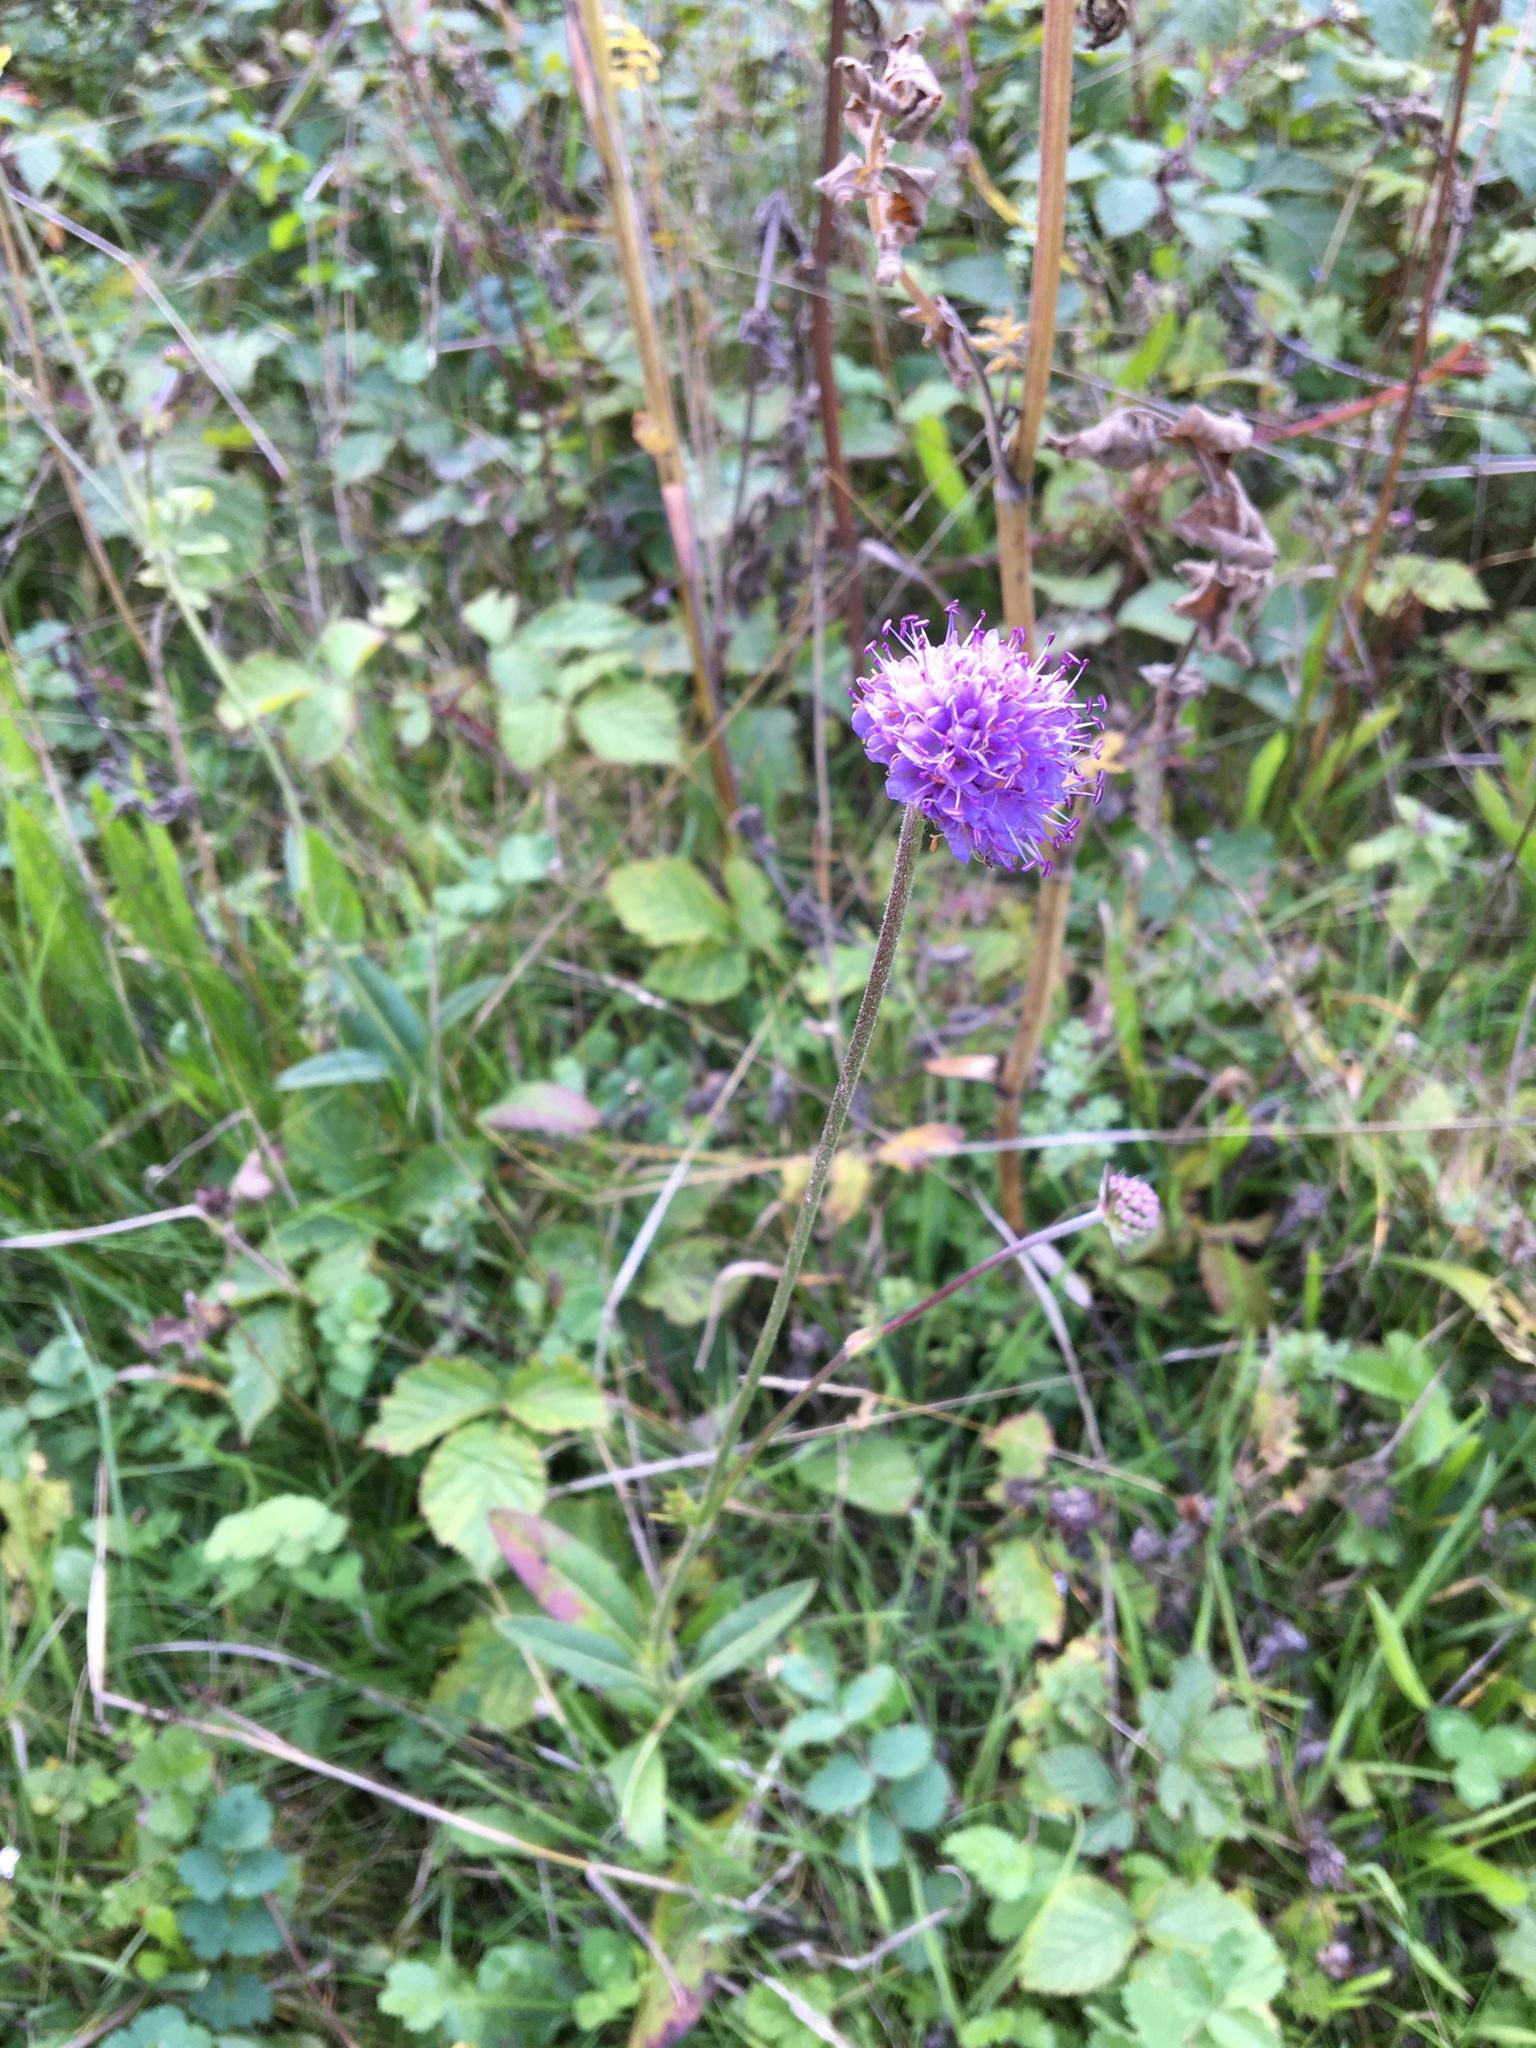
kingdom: Plantae
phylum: Tracheophyta
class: Magnoliopsida
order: Dipsacales
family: Caprifoliaceae
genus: Succisa
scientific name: Succisa pratensis
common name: Devil's-bit
